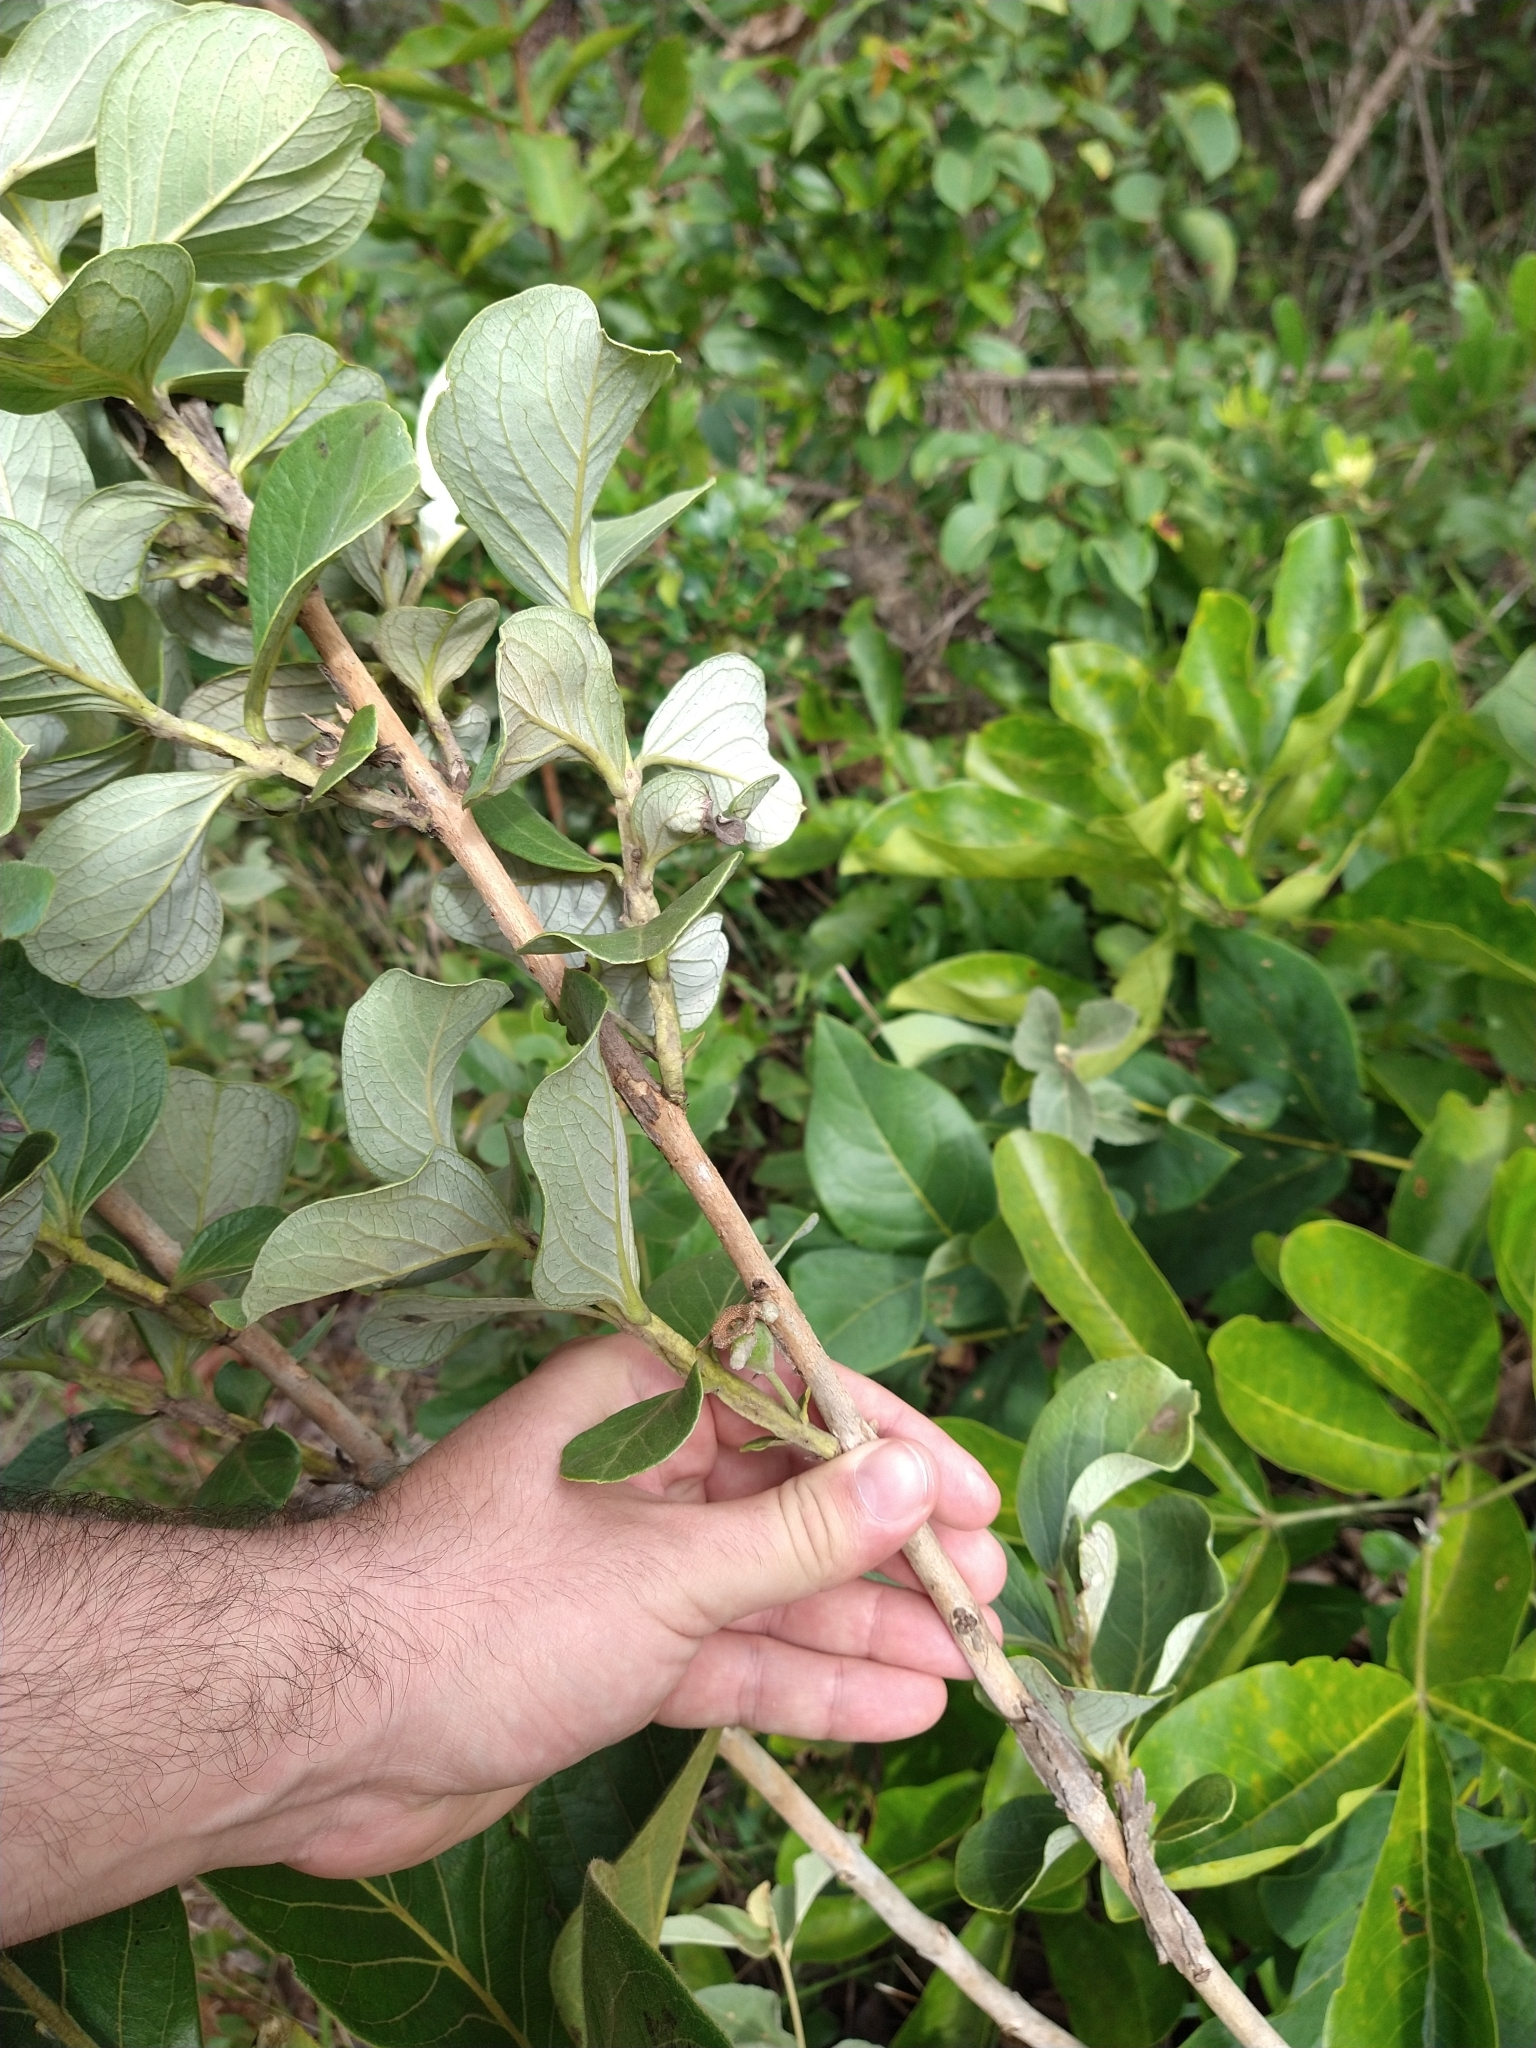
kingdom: Plantae
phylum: Tracheophyta
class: Magnoliopsida
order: Myrtales
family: Myrtaceae
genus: Psidium
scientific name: Psidium grandifolium
